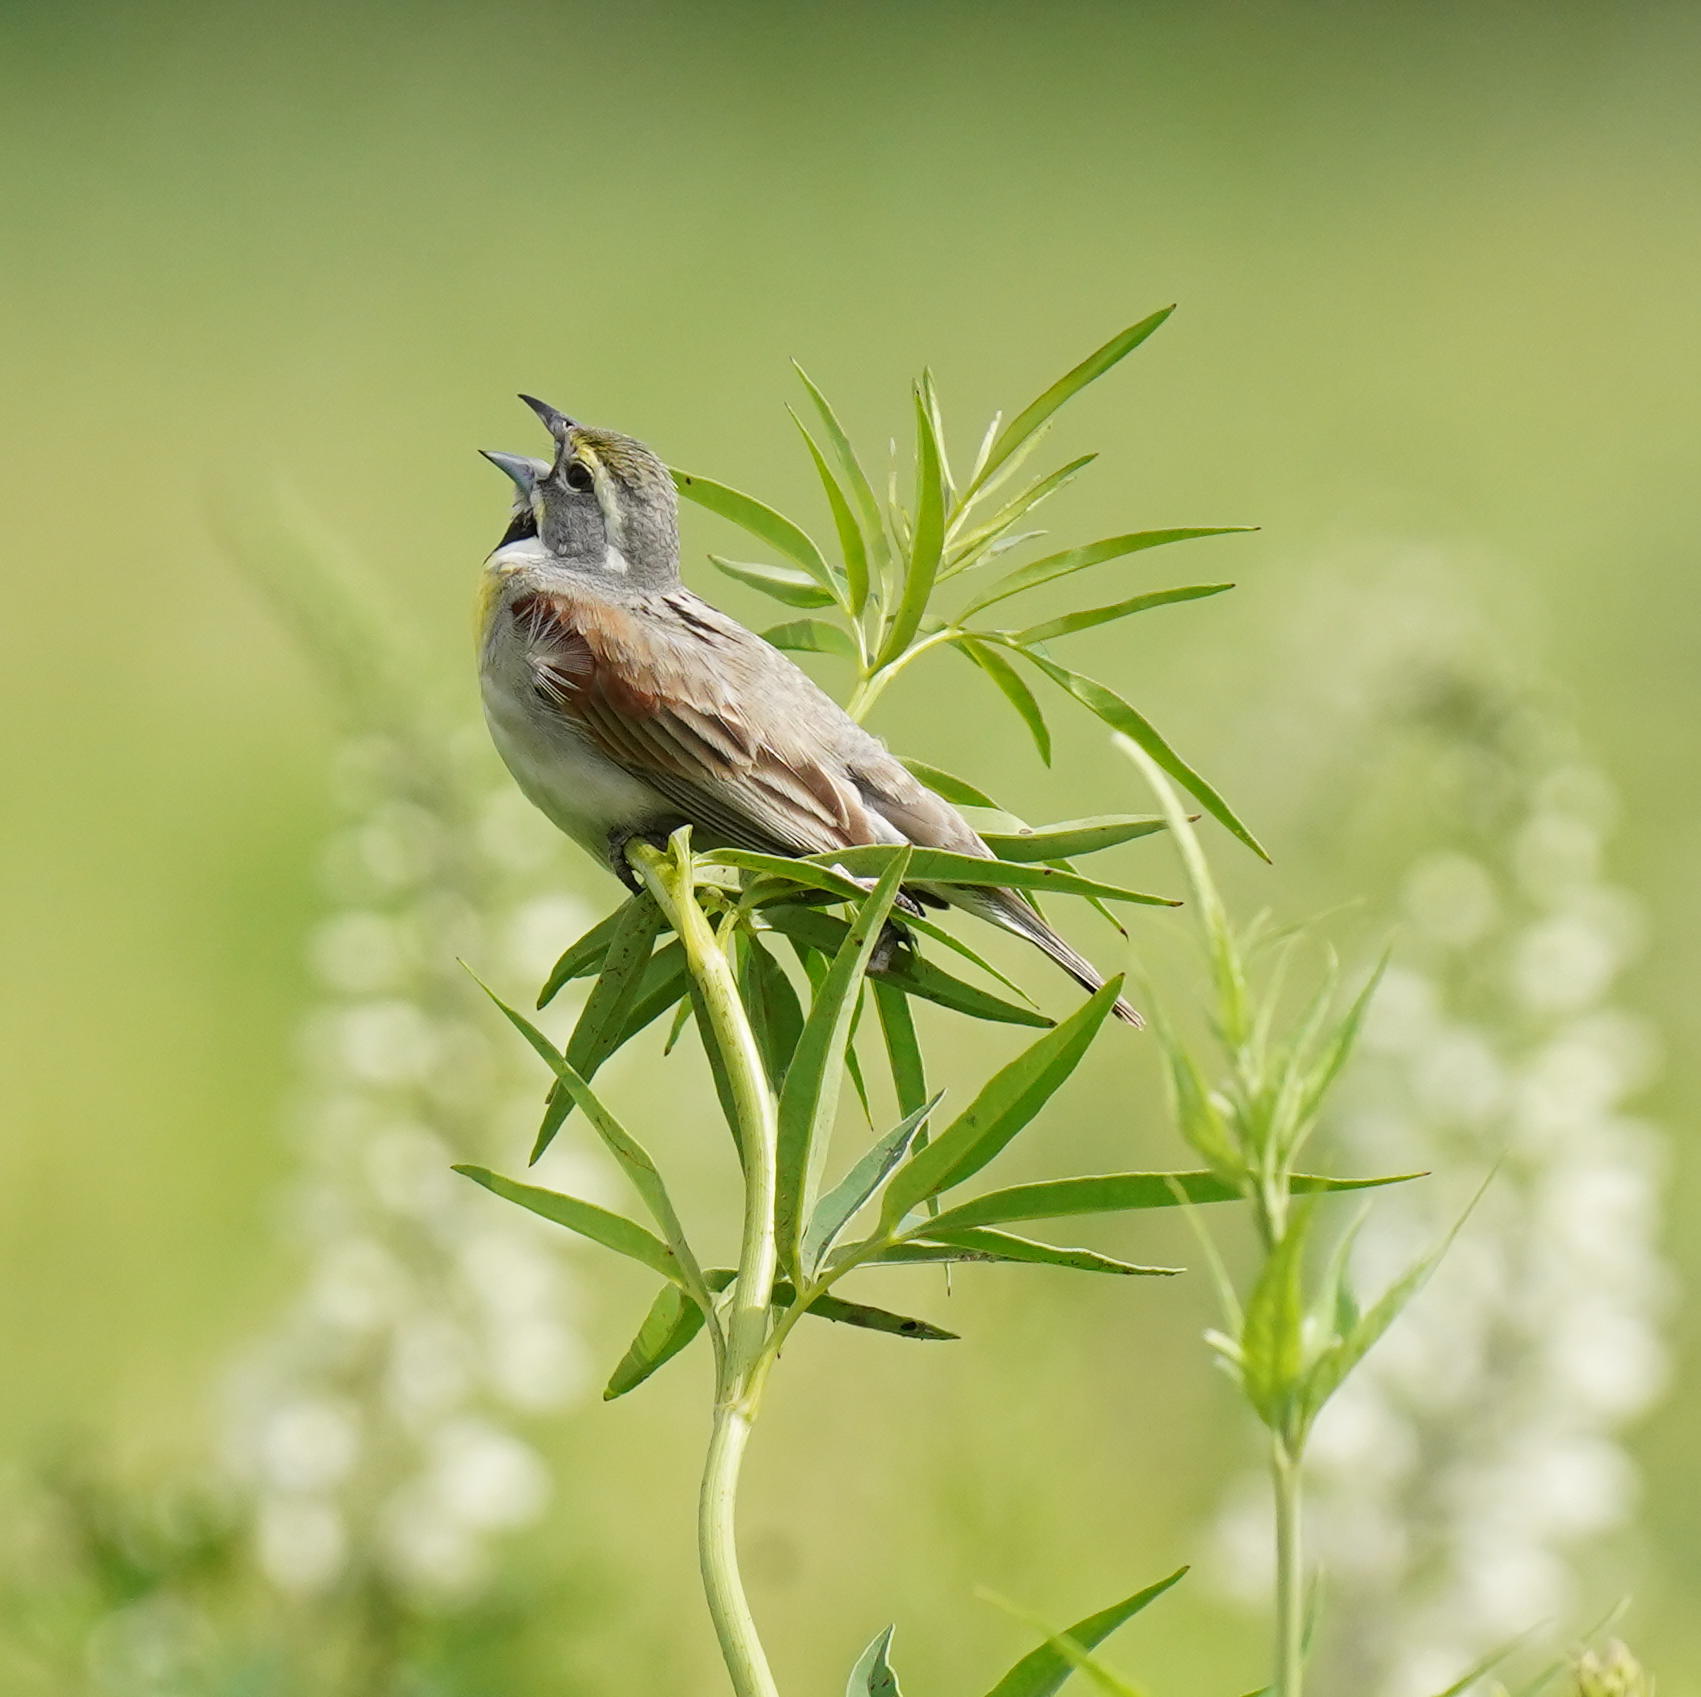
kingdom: Animalia
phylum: Chordata
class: Aves
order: Passeriformes
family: Cardinalidae
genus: Spiza
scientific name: Spiza americana
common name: Dickcissel
